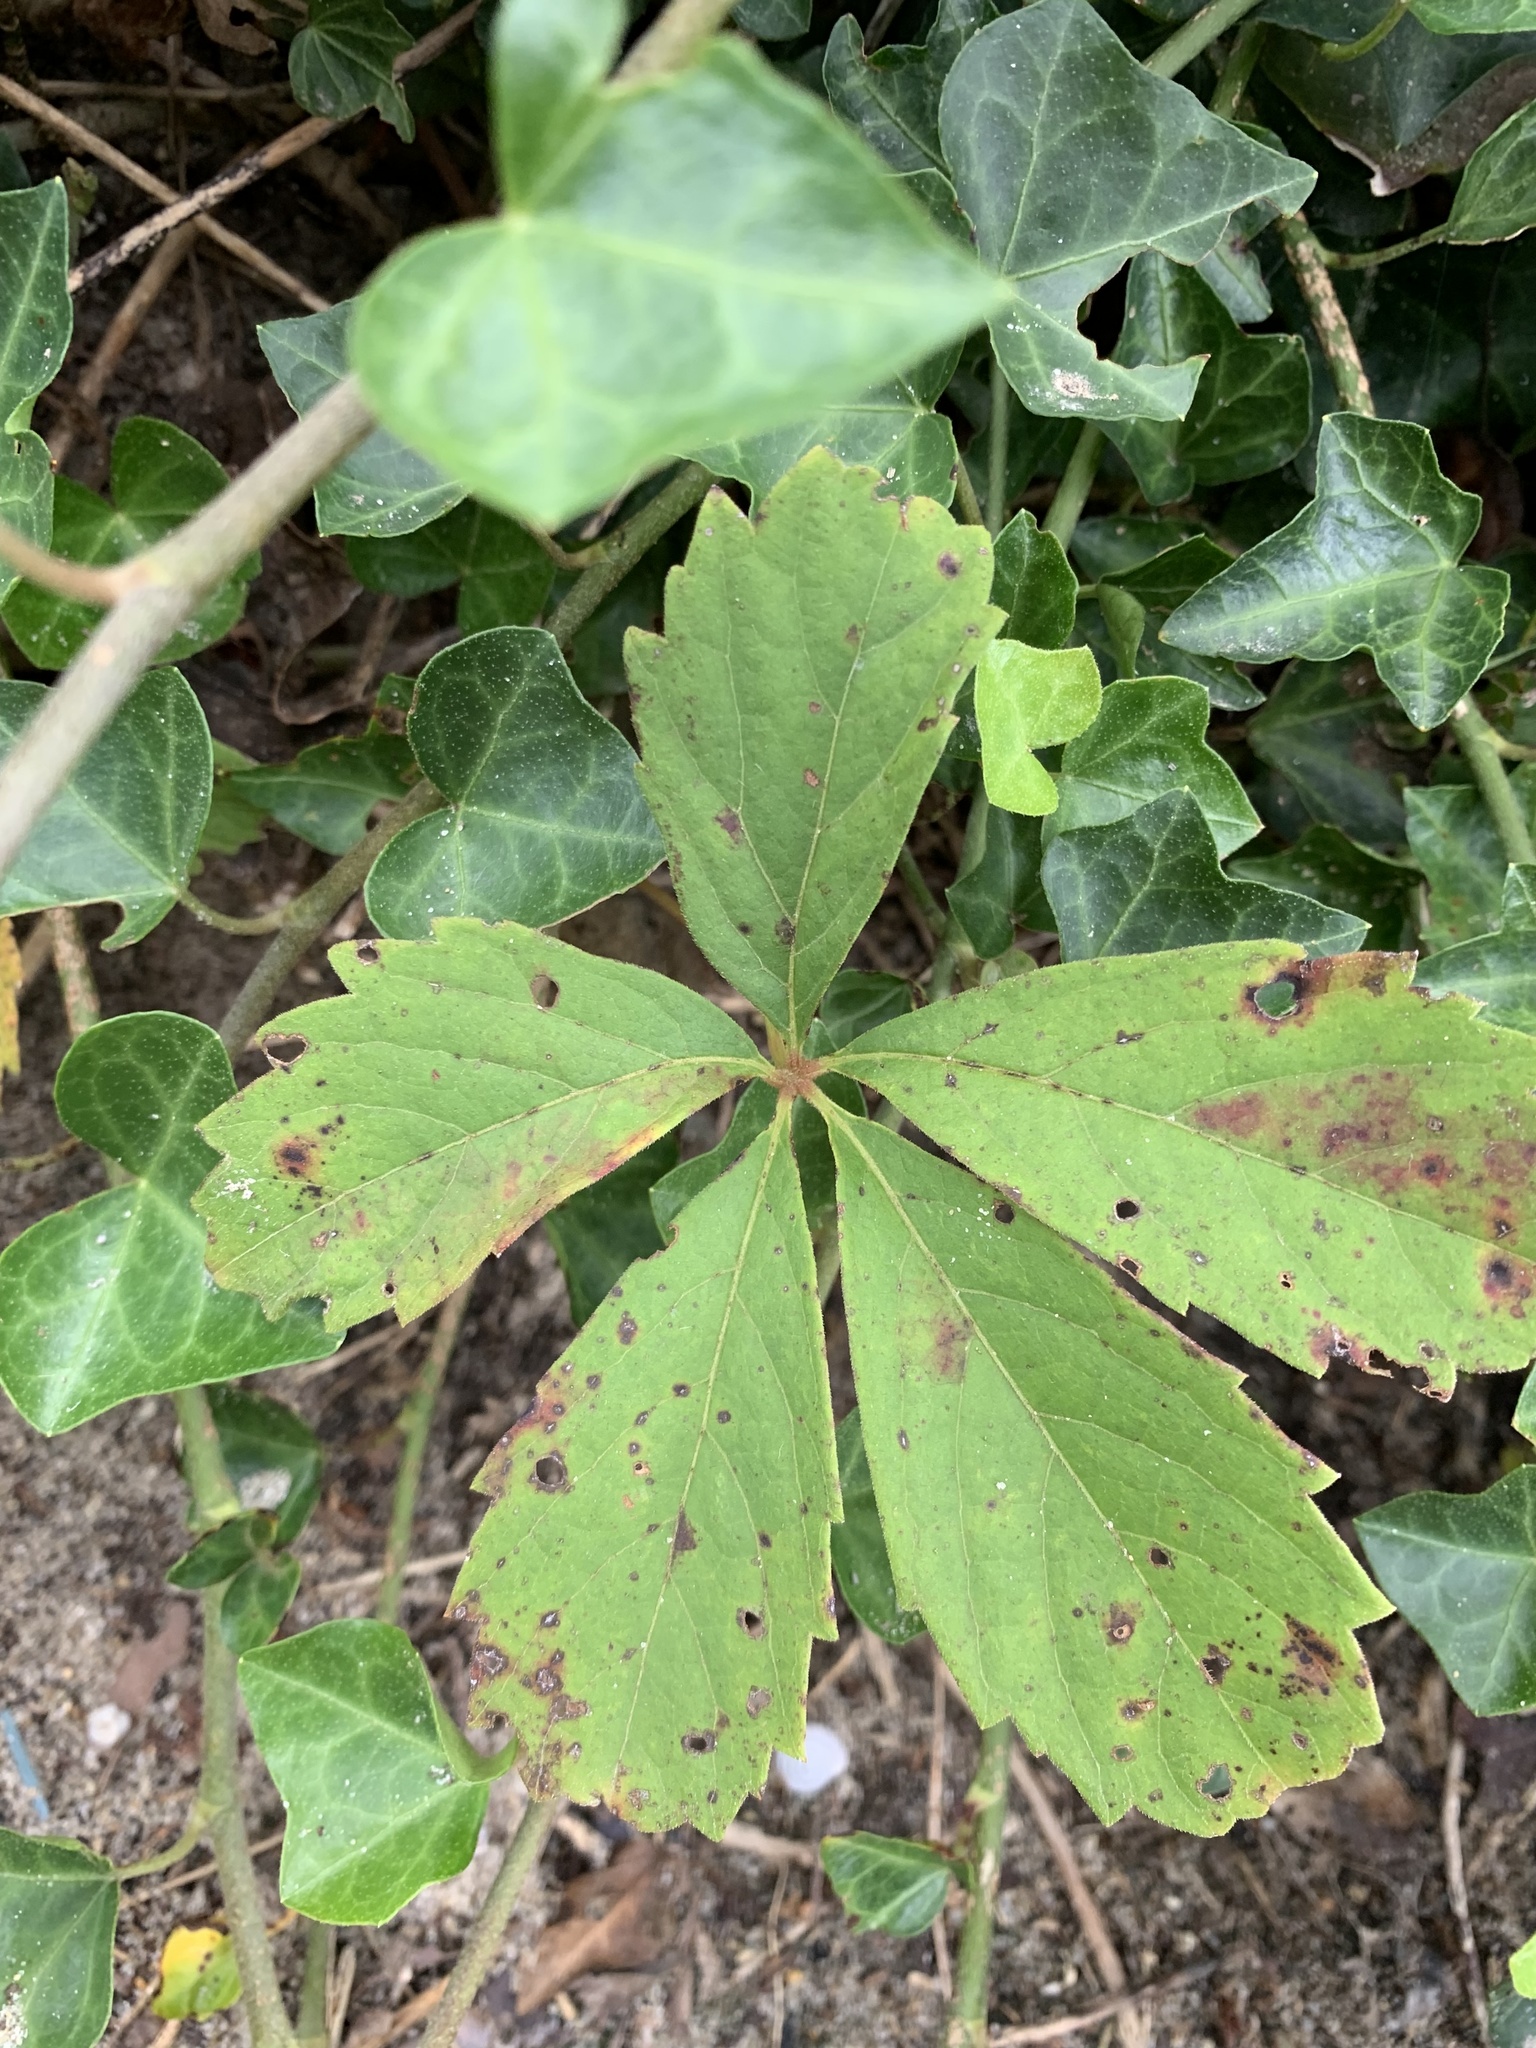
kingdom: Plantae
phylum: Tracheophyta
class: Magnoliopsida
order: Vitales
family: Vitaceae
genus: Parthenocissus
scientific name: Parthenocissus quinquefolia
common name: Virginia-creeper
